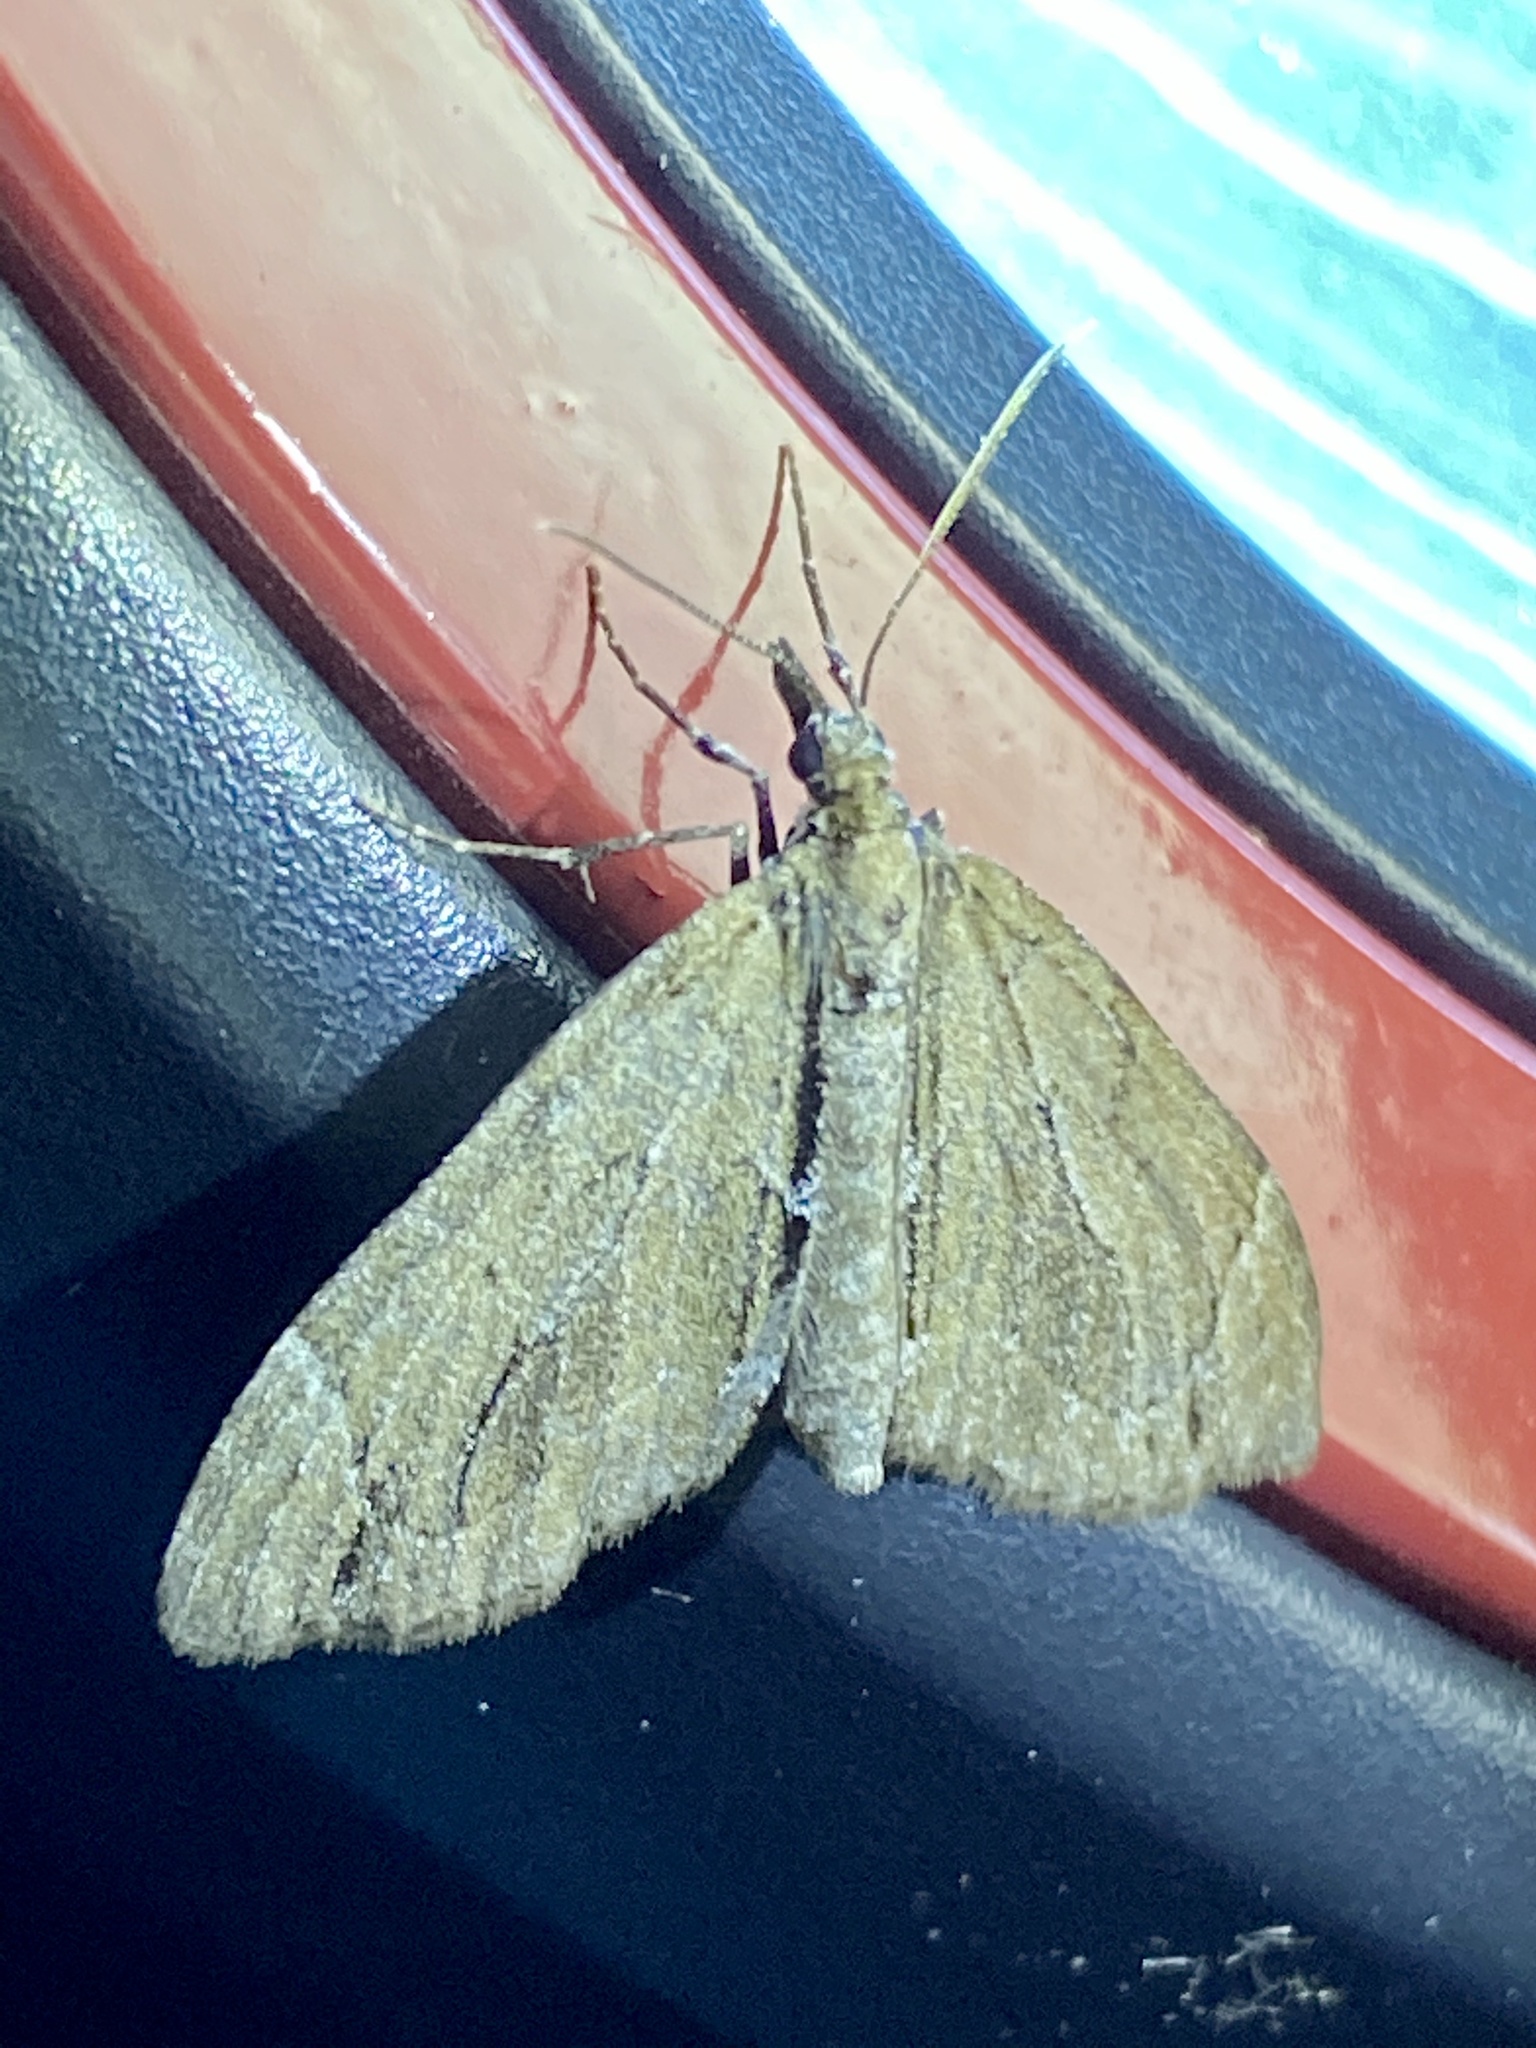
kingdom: Animalia
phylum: Arthropoda
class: Insecta
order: Lepidoptera
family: Geometridae
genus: Lobophorodes
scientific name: Lobophorodes
